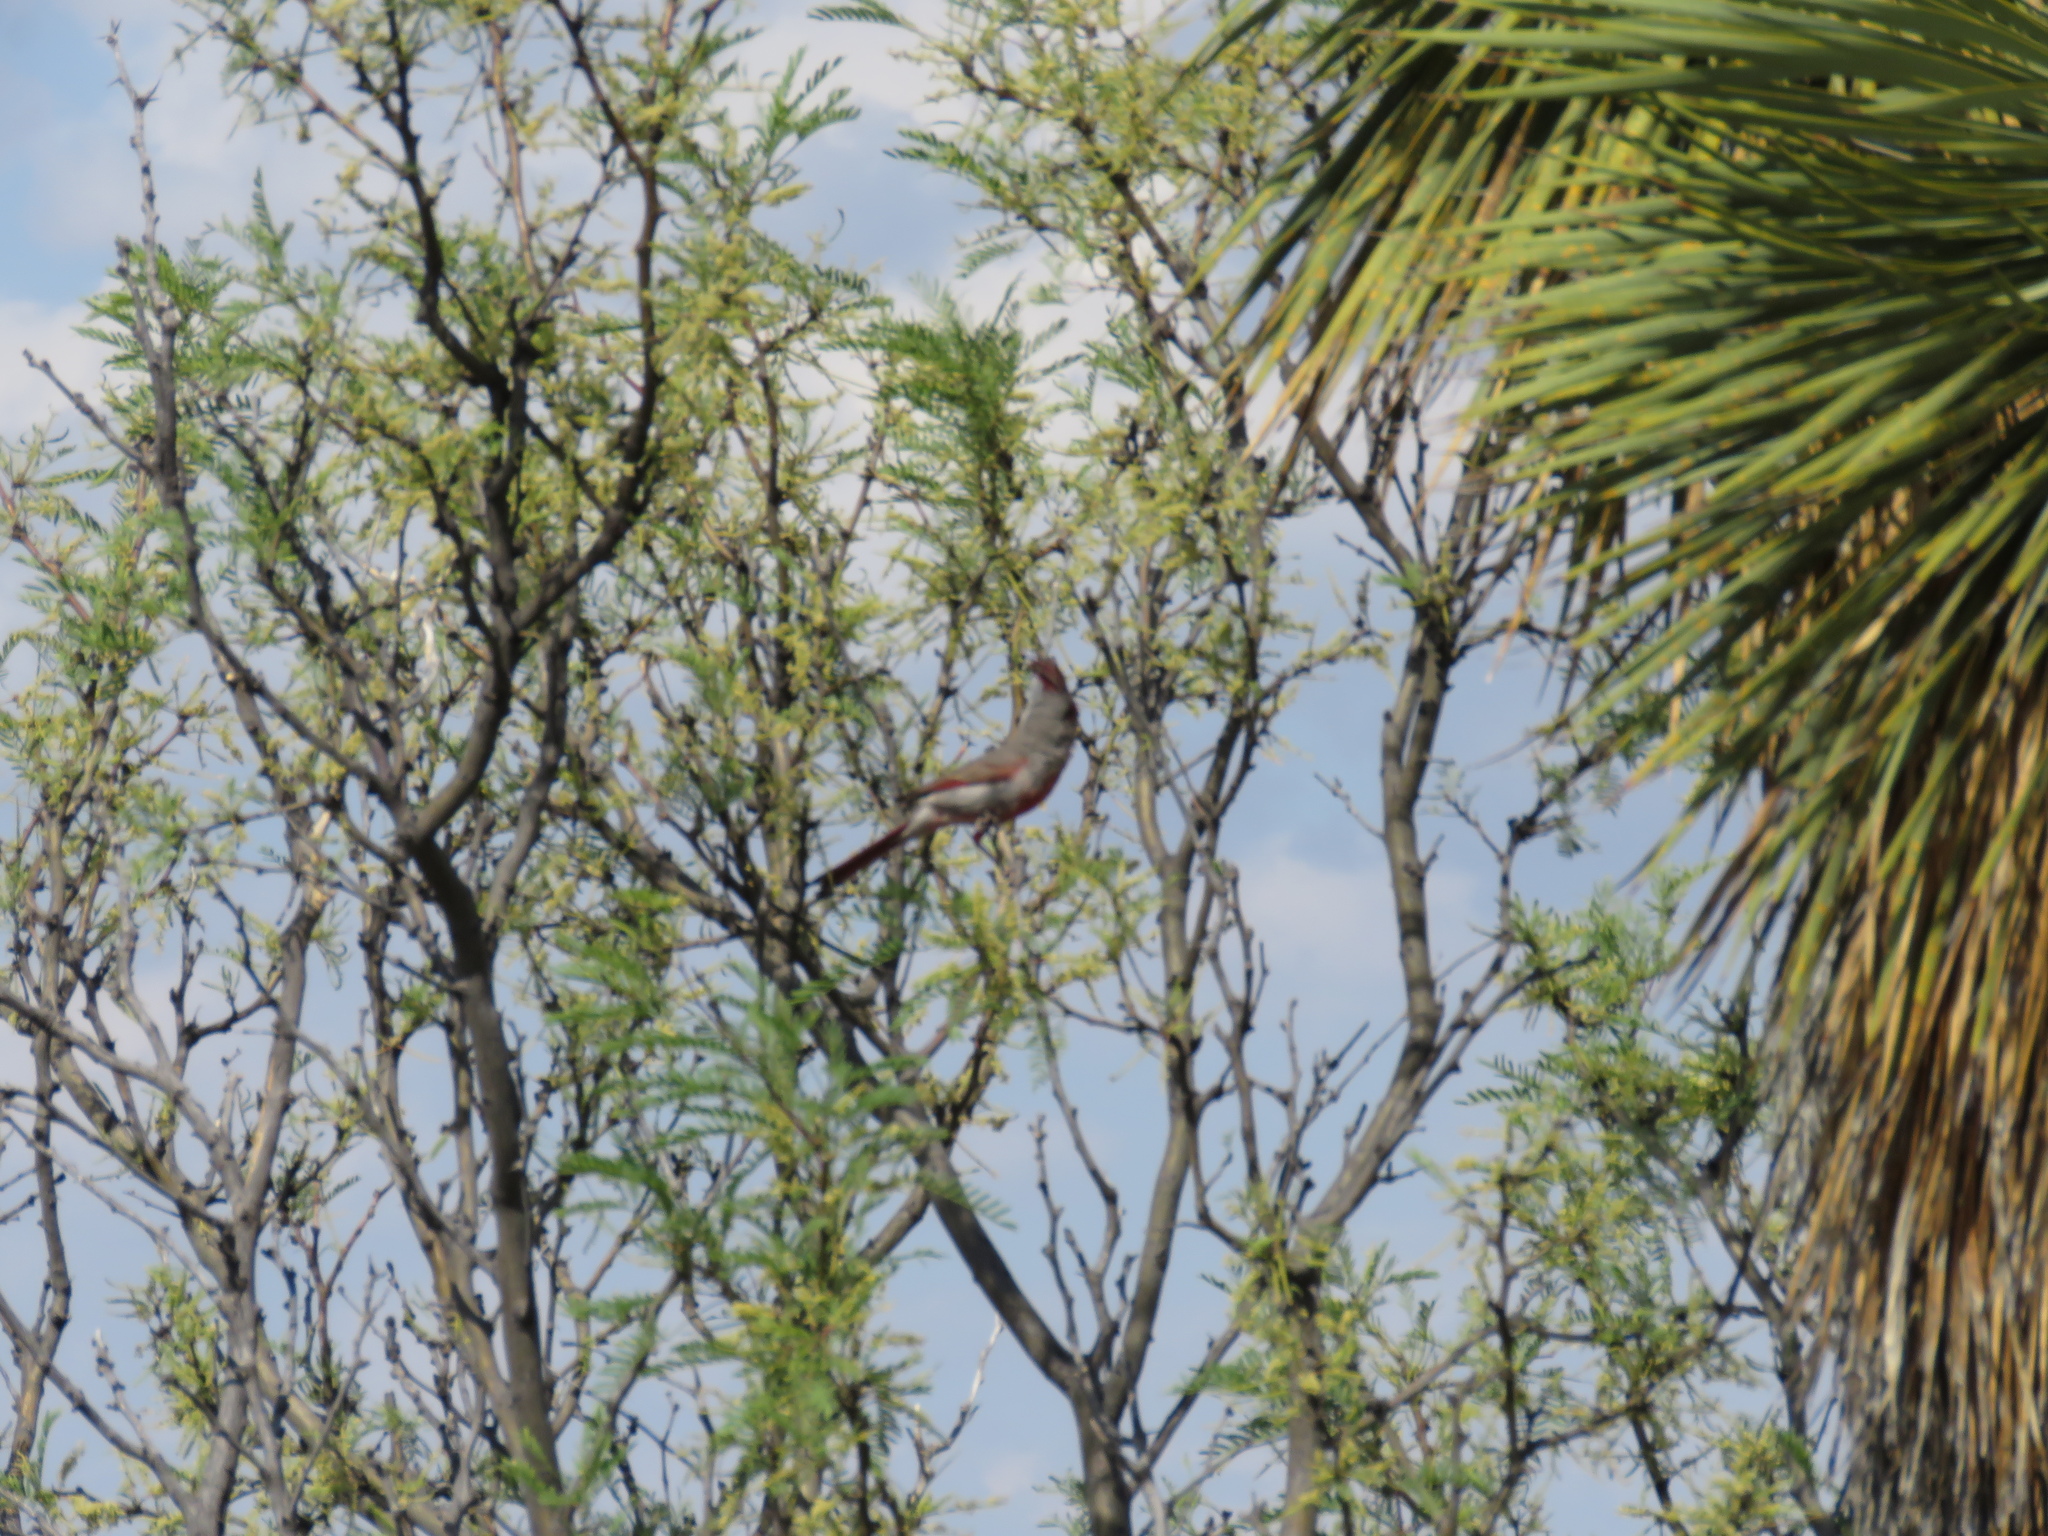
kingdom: Animalia
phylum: Chordata
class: Aves
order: Passeriformes
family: Cardinalidae
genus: Cardinalis
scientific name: Cardinalis sinuatus
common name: Pyrrhuloxia
